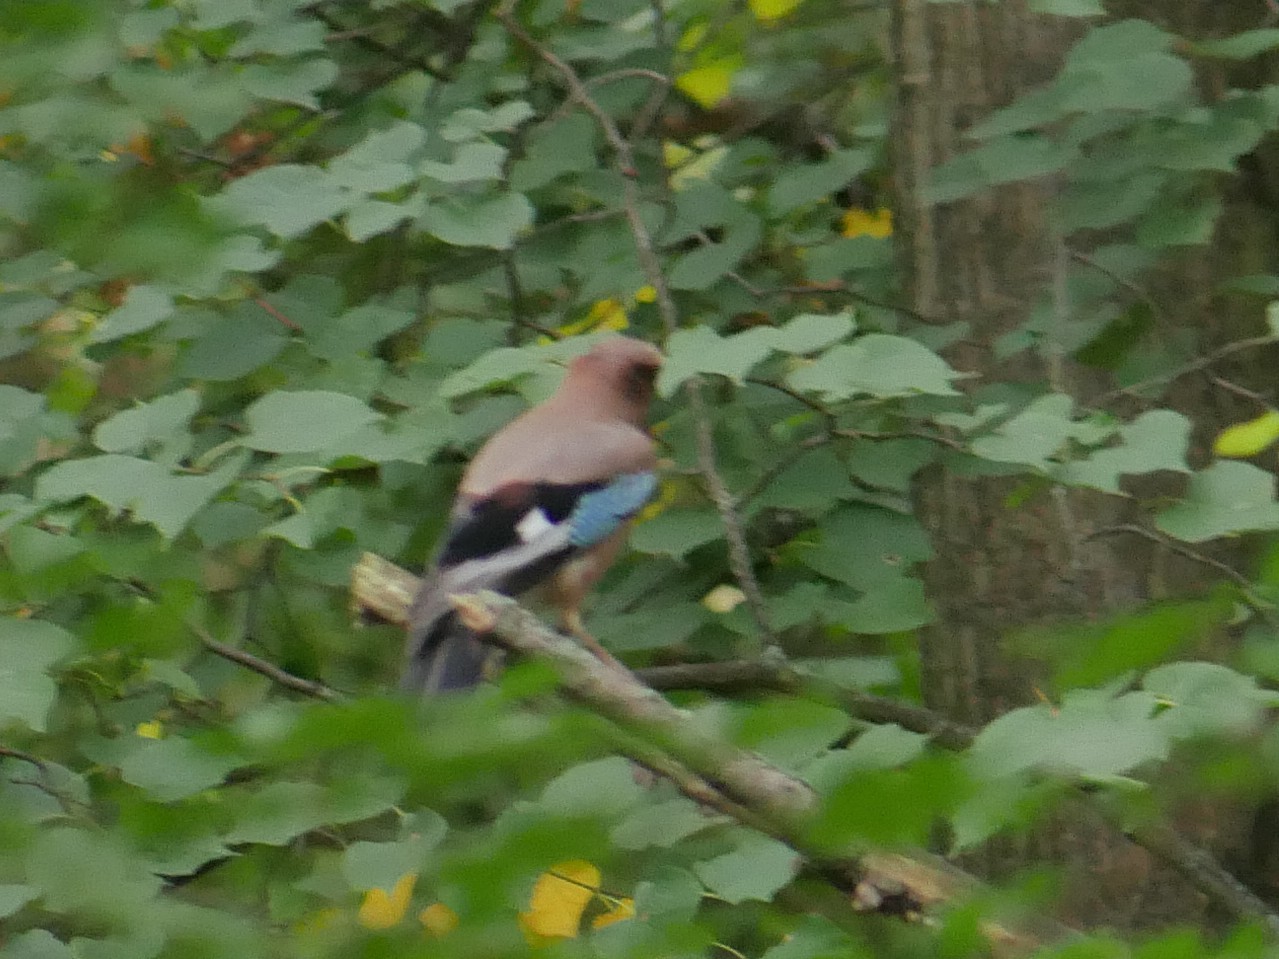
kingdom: Animalia
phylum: Chordata
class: Aves
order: Passeriformes
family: Corvidae
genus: Garrulus
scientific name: Garrulus glandarius
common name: Eurasian jay
